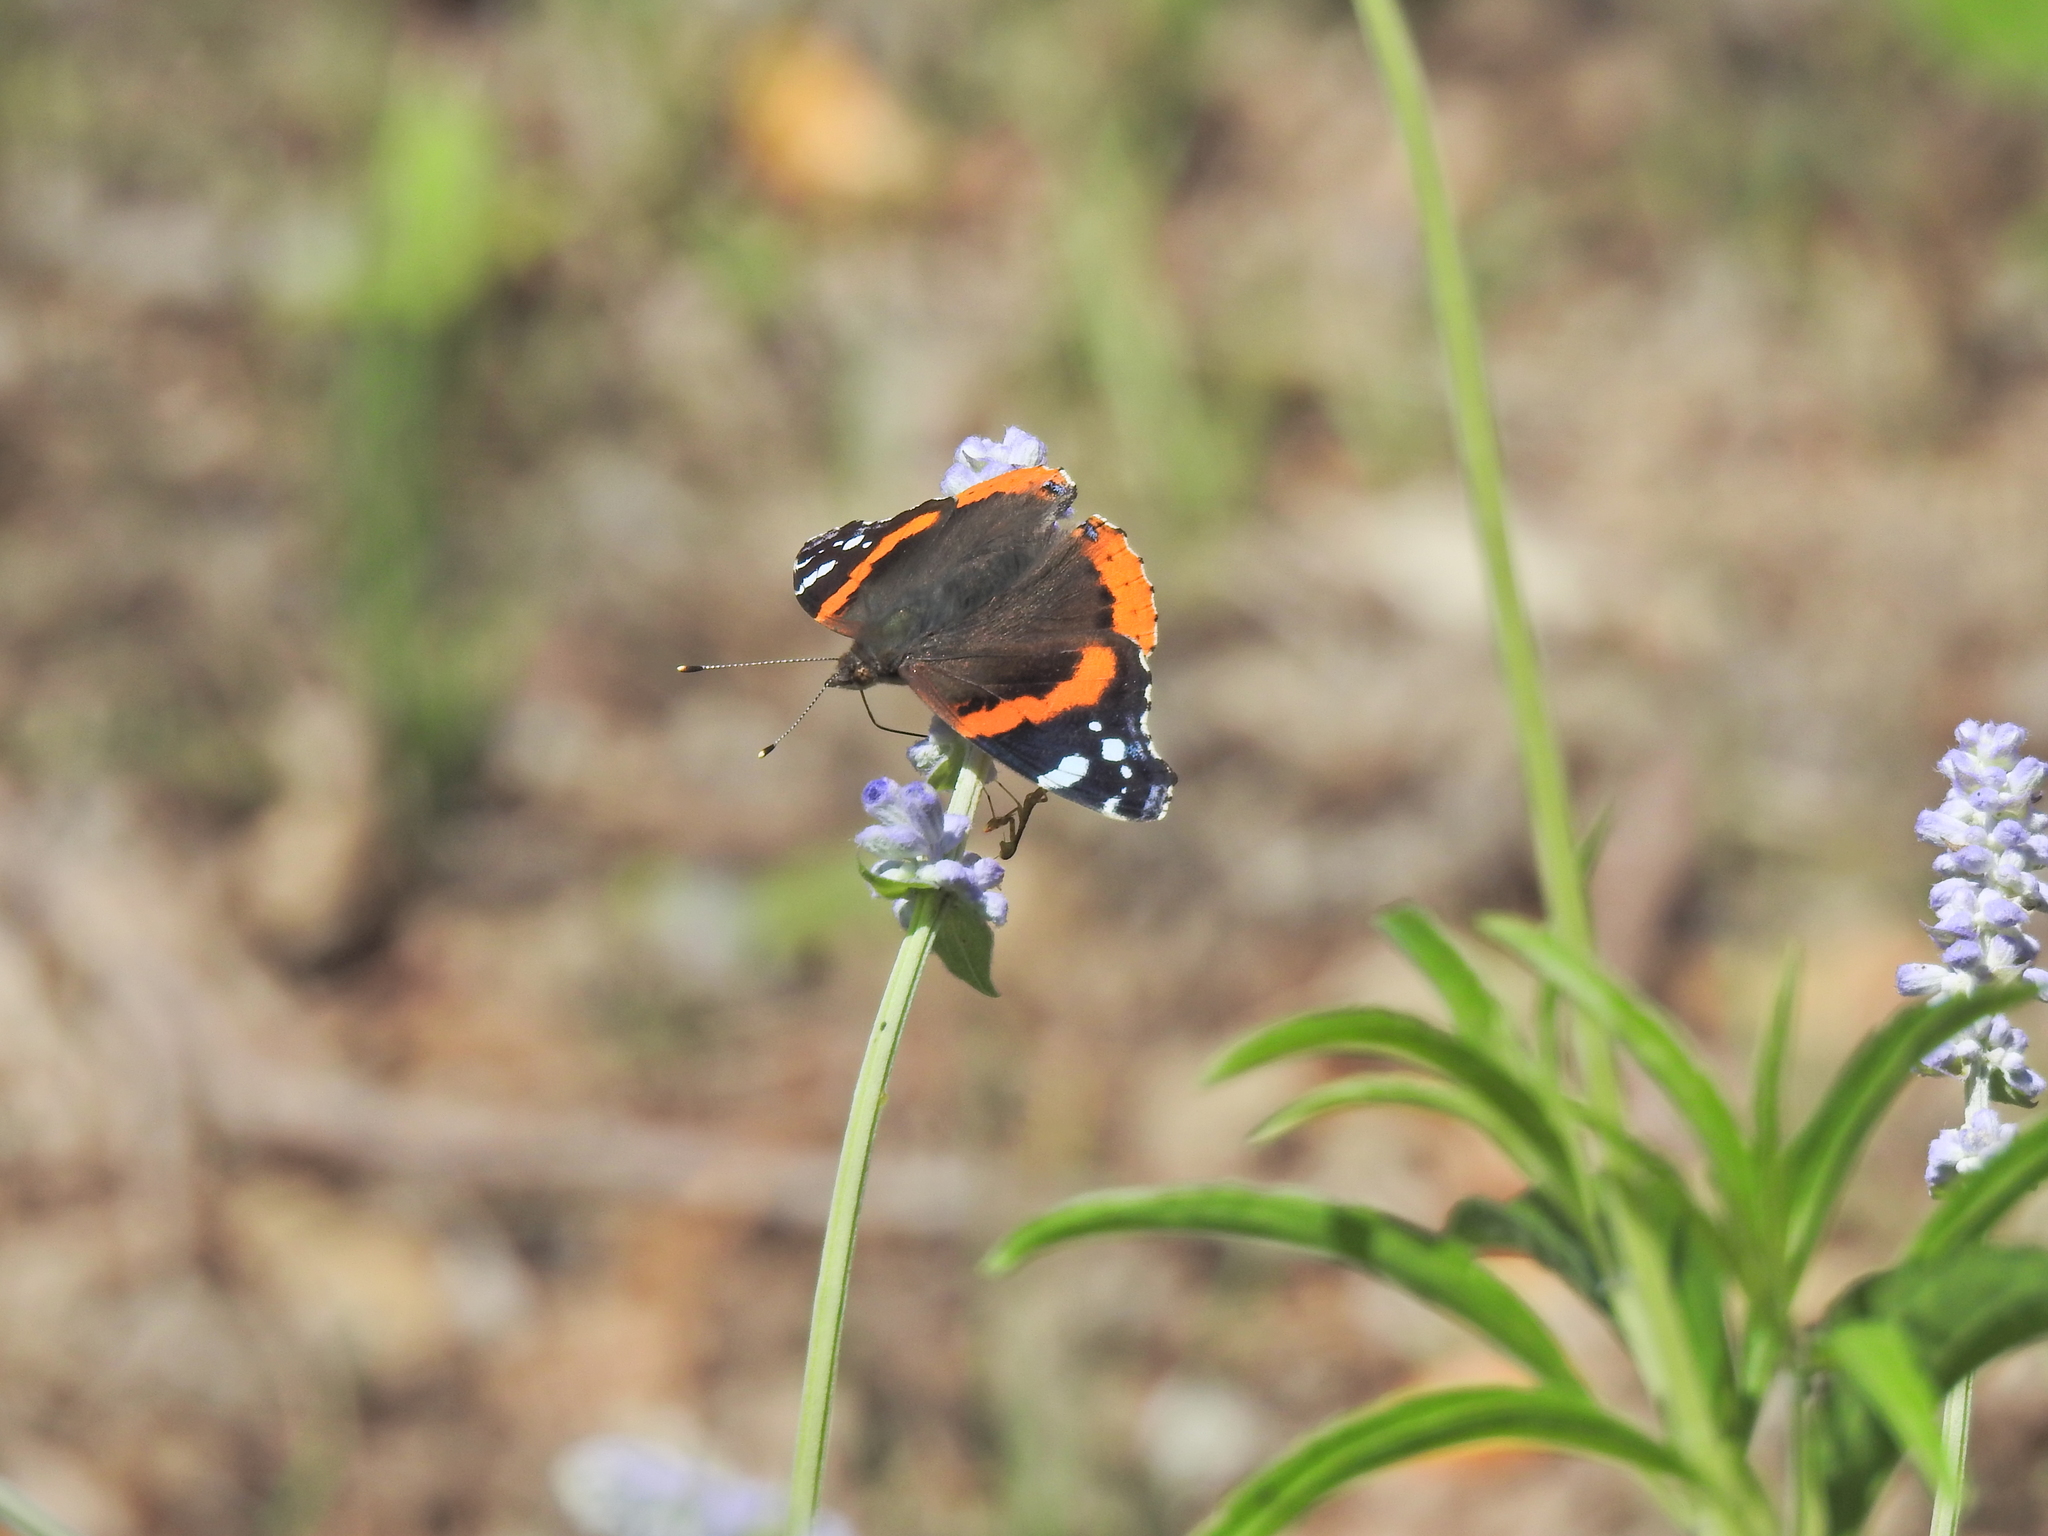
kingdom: Animalia
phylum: Arthropoda
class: Insecta
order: Lepidoptera
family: Nymphalidae
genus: Vanessa
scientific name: Vanessa atalanta
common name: Red admiral
